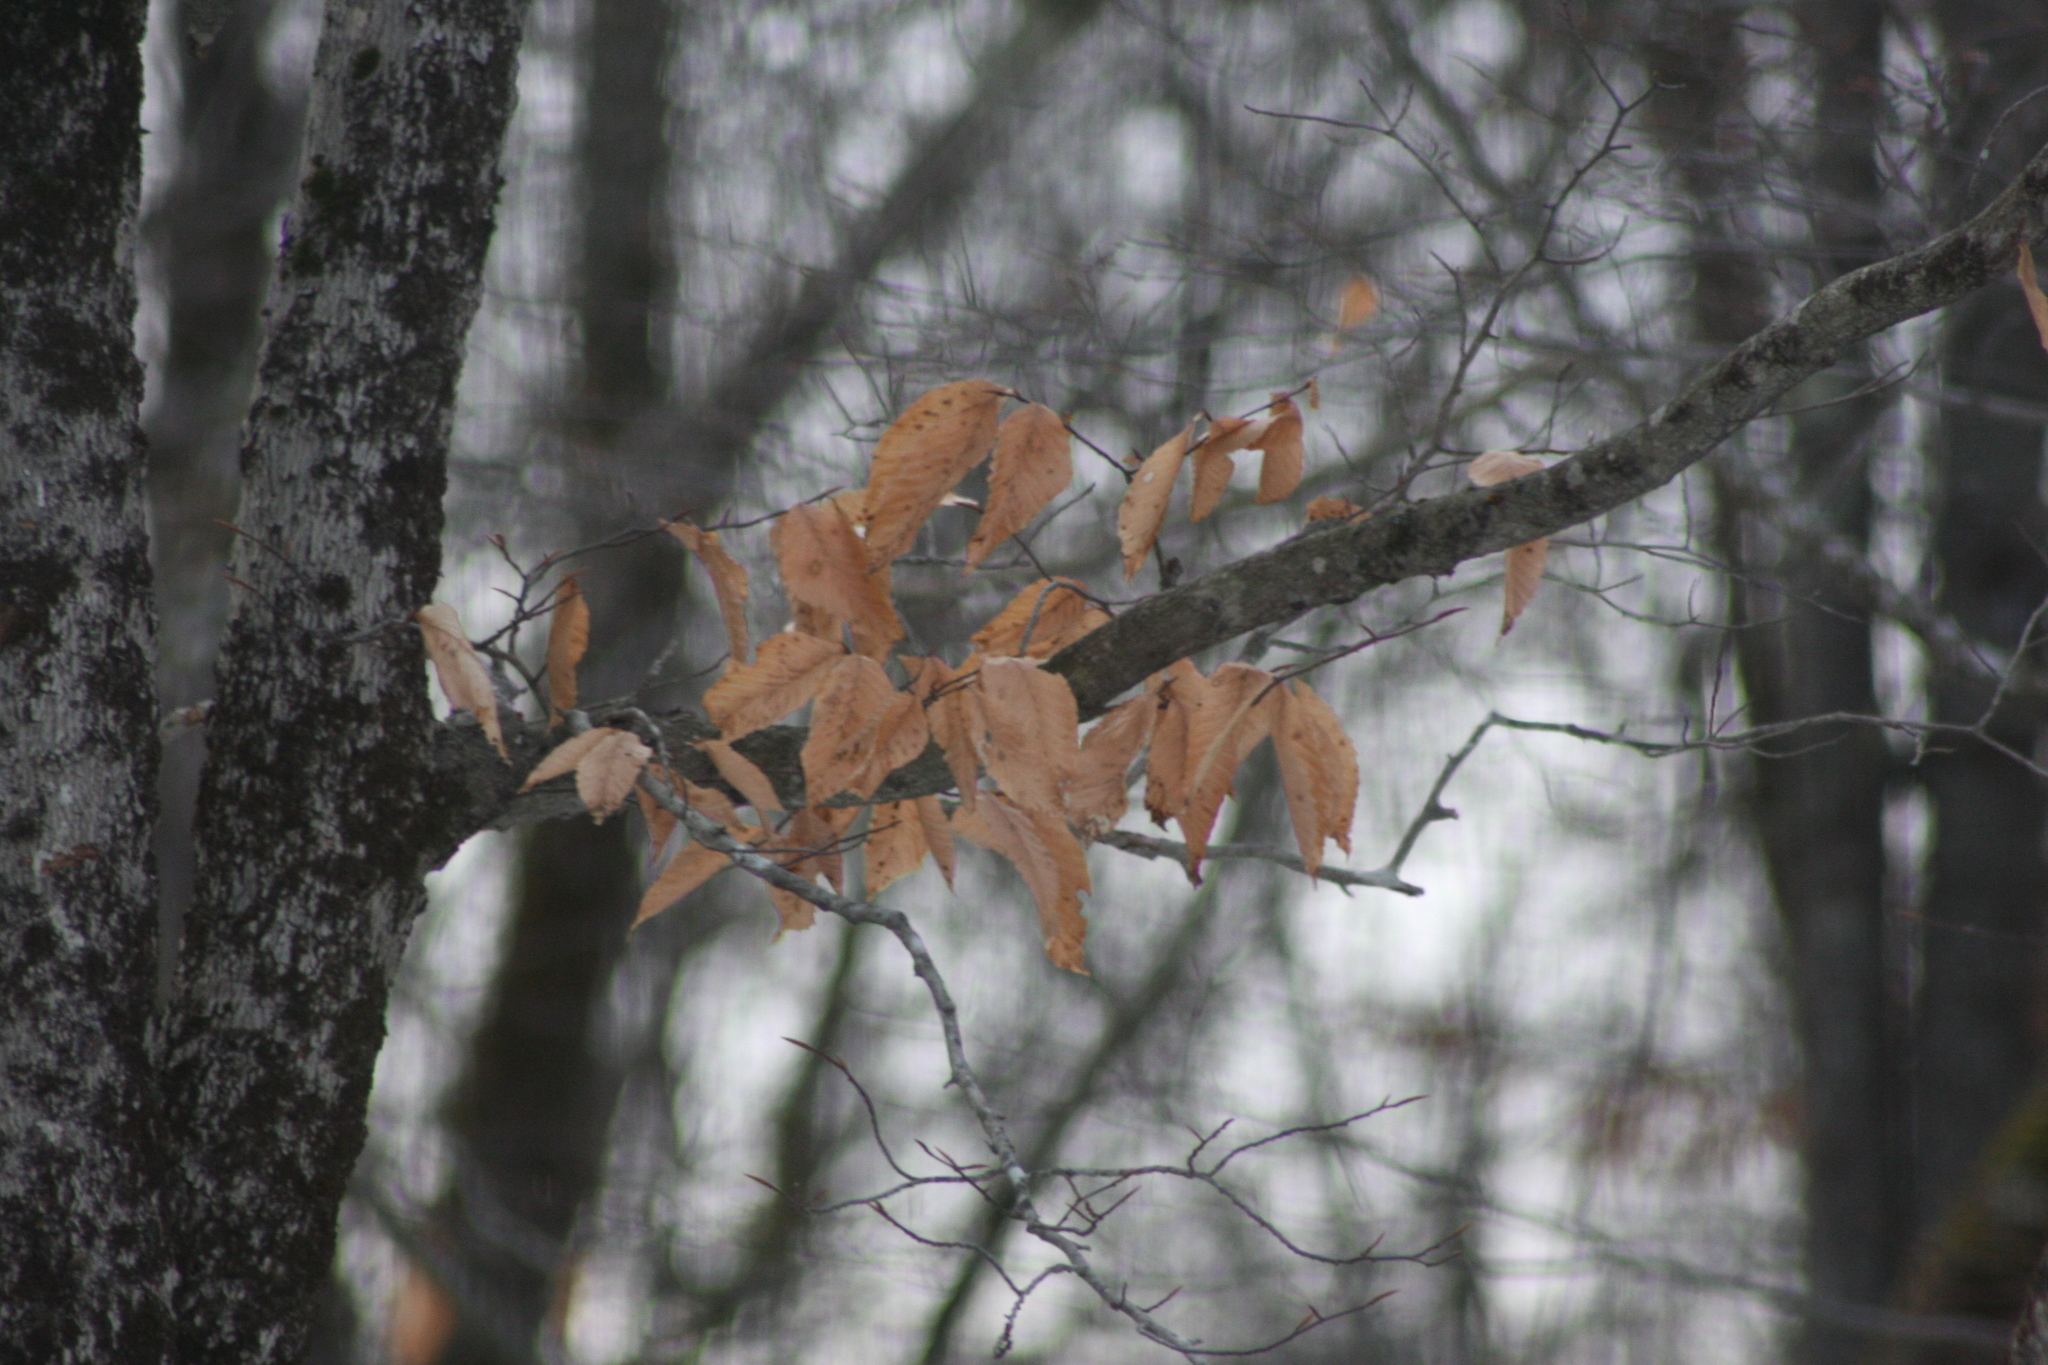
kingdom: Plantae
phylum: Tracheophyta
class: Magnoliopsida
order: Fagales
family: Fagaceae
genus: Fagus
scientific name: Fagus grandifolia
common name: American beech
